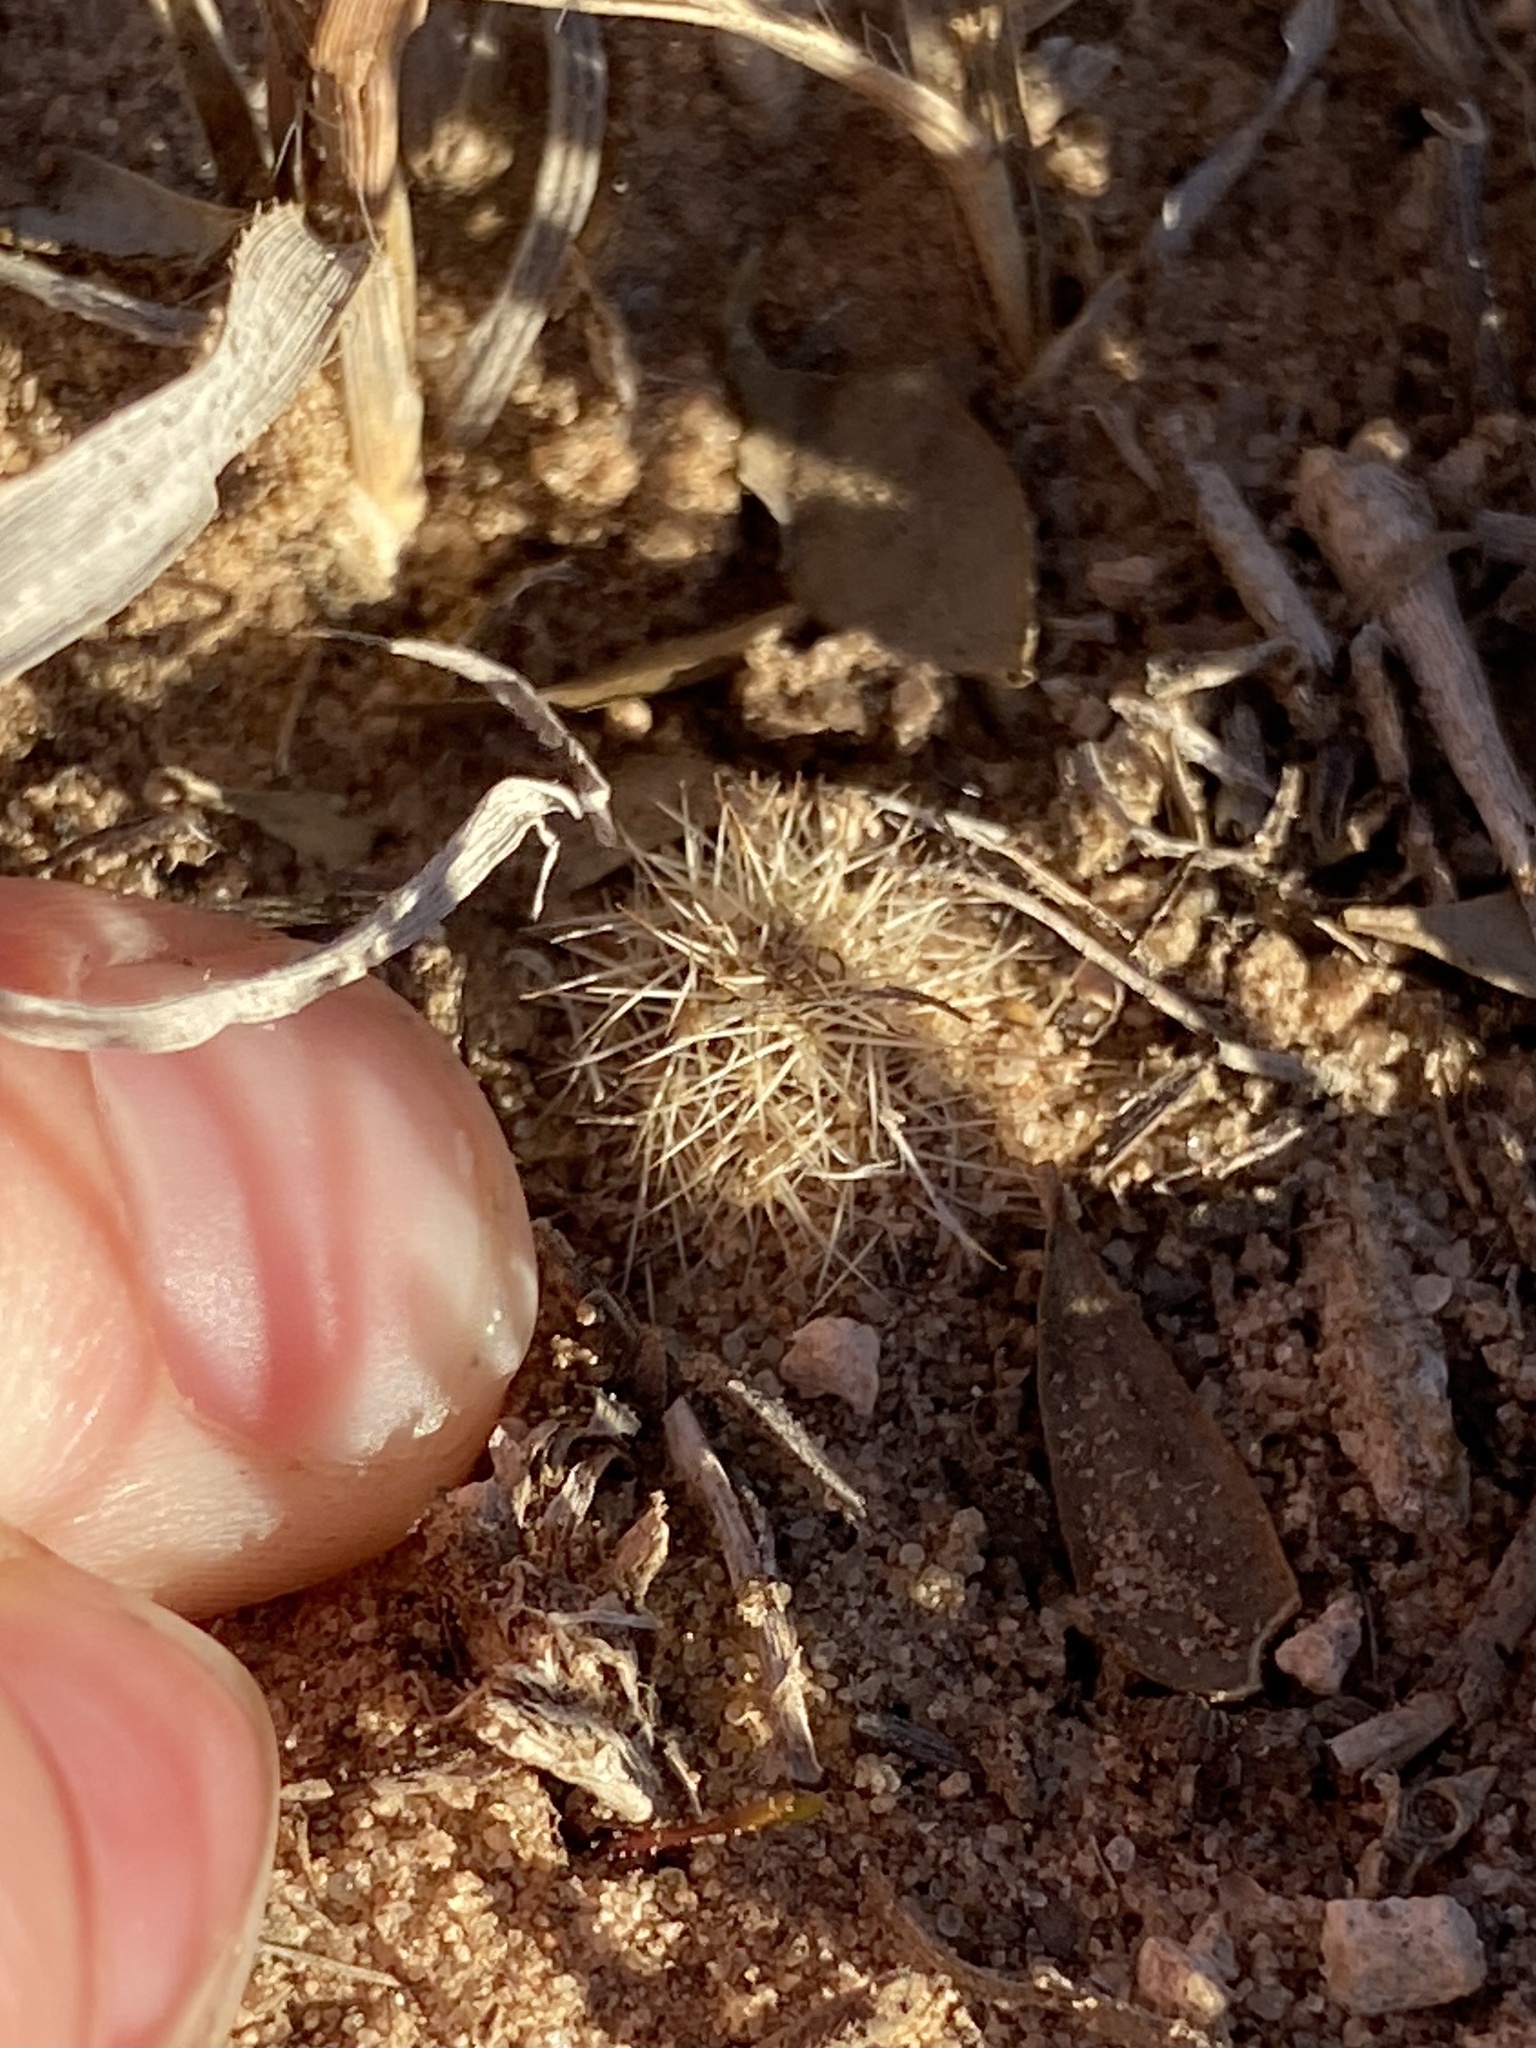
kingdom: Plantae
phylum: Tracheophyta
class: Magnoliopsida
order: Caryophyllales
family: Cactaceae
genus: Echinocereus
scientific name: Echinocereus reichenbachii
